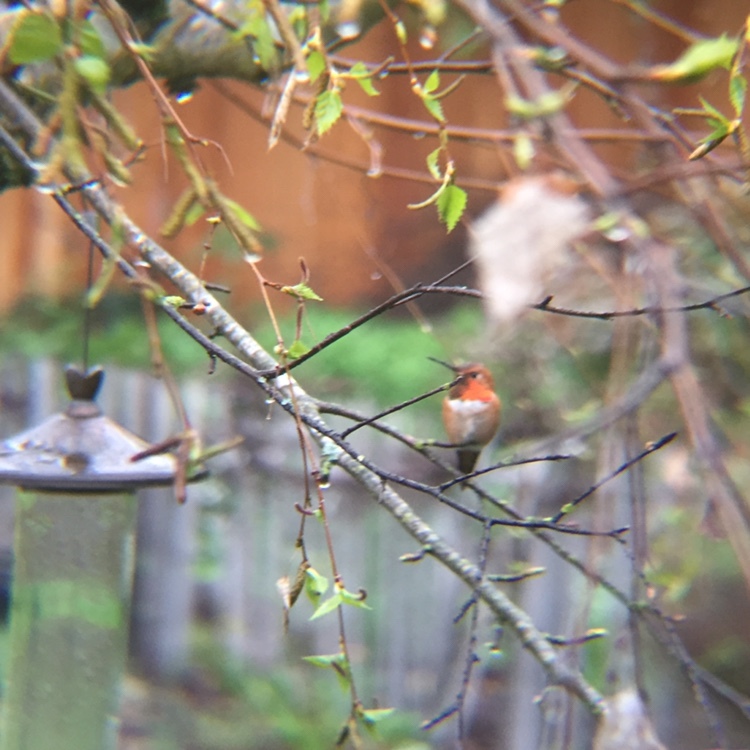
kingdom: Animalia
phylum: Chordata
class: Aves
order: Apodiformes
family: Trochilidae
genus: Selasphorus
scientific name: Selasphorus rufus
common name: Rufous hummingbird
